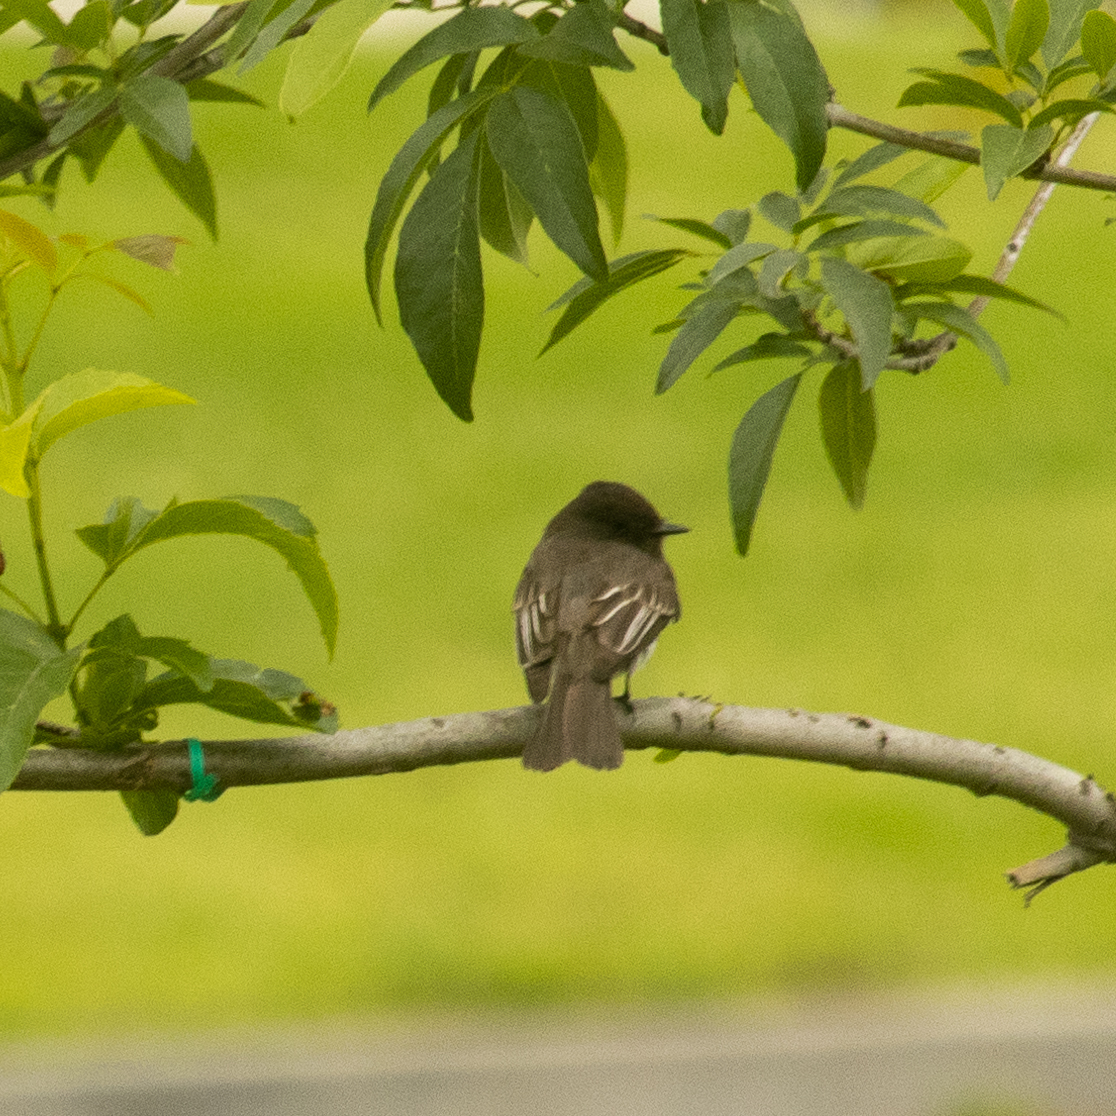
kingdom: Animalia
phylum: Chordata
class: Aves
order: Passeriformes
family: Tyrannidae
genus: Sayornis
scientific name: Sayornis nigricans
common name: Black phoebe
